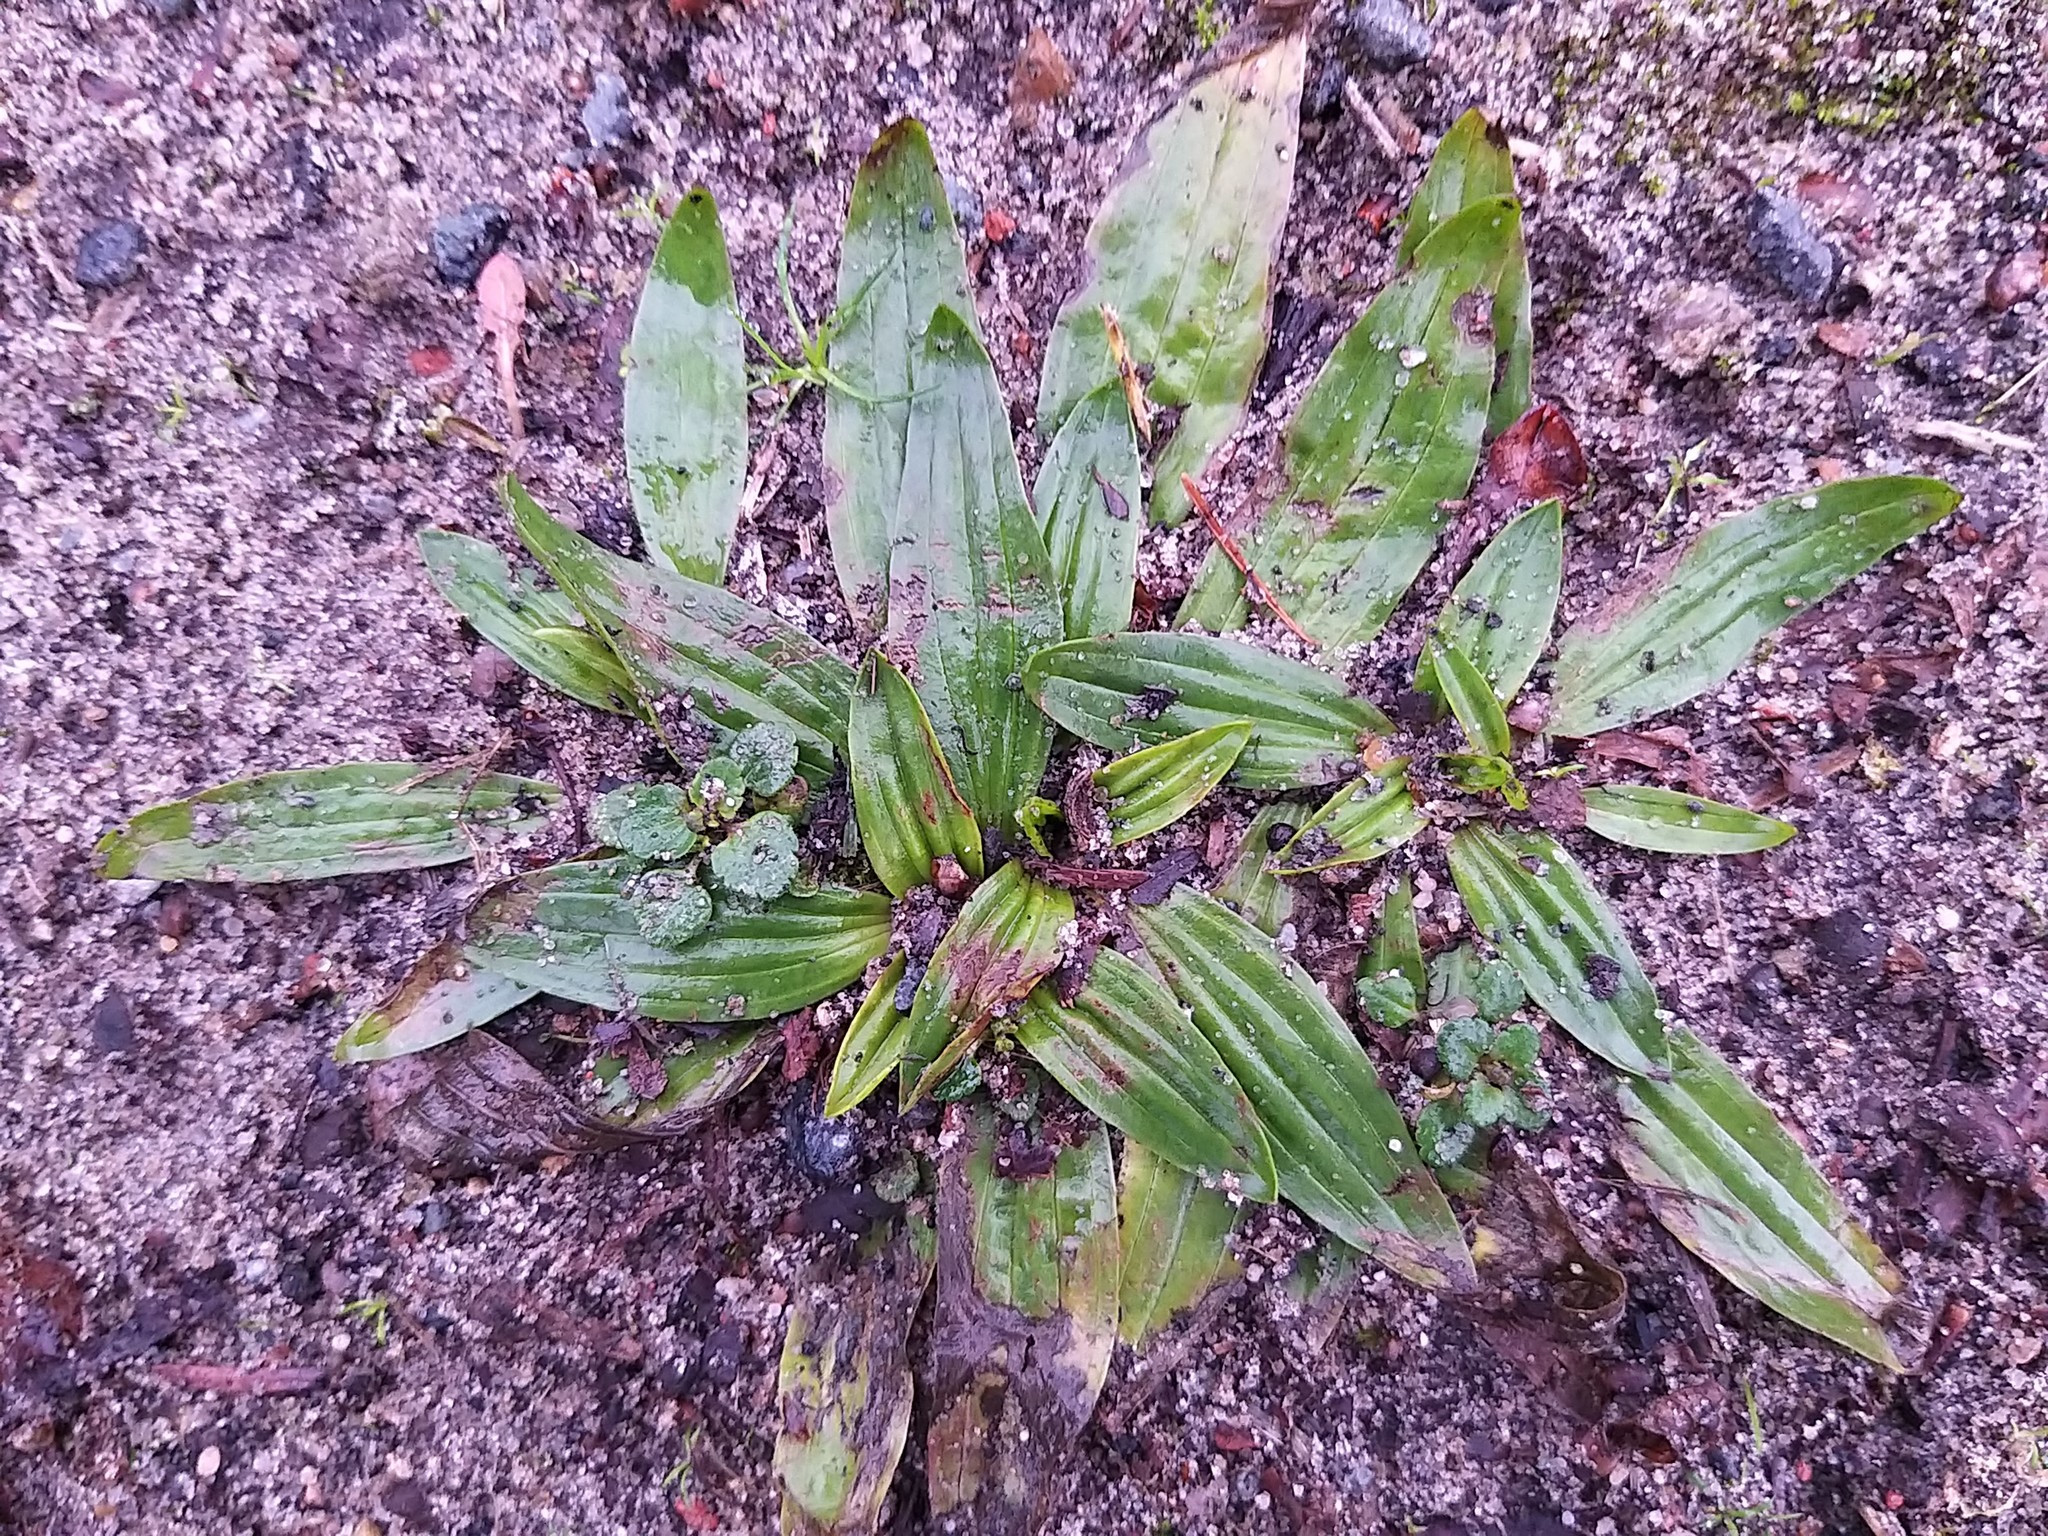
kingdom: Plantae
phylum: Tracheophyta
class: Magnoliopsida
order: Lamiales
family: Plantaginaceae
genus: Plantago
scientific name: Plantago lanceolata
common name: Ribwort plantain
